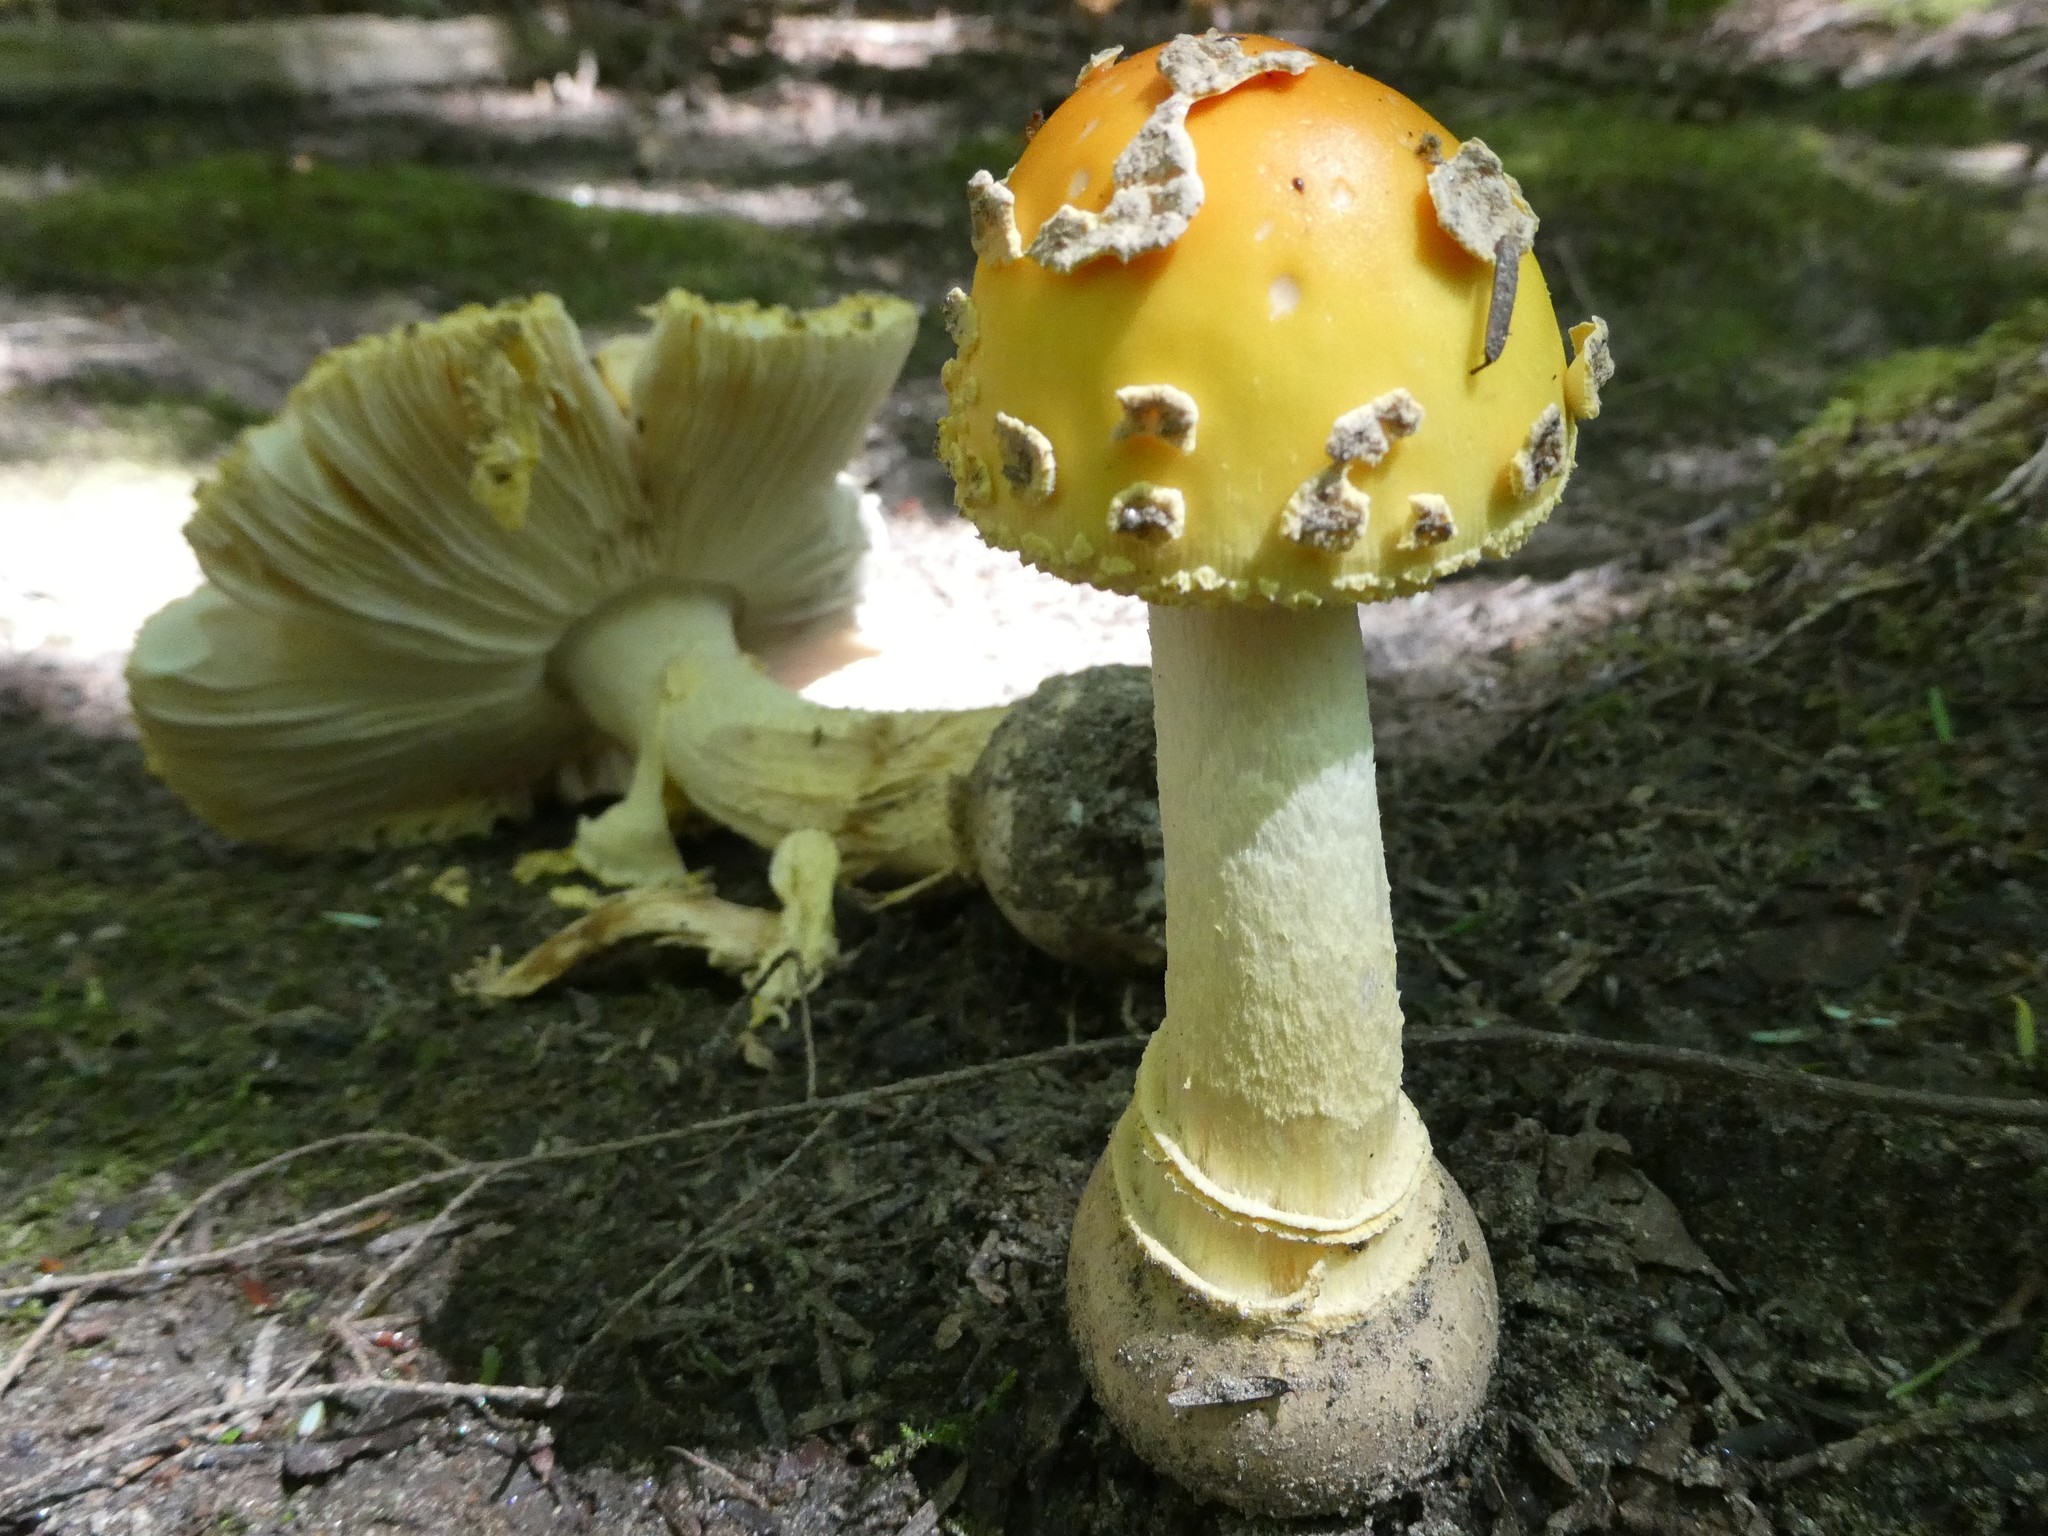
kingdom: Fungi
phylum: Basidiomycota
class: Agaricomycetes
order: Agaricales
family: Amanitaceae
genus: Amanita
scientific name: Amanita muscaria
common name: Fly agaric
